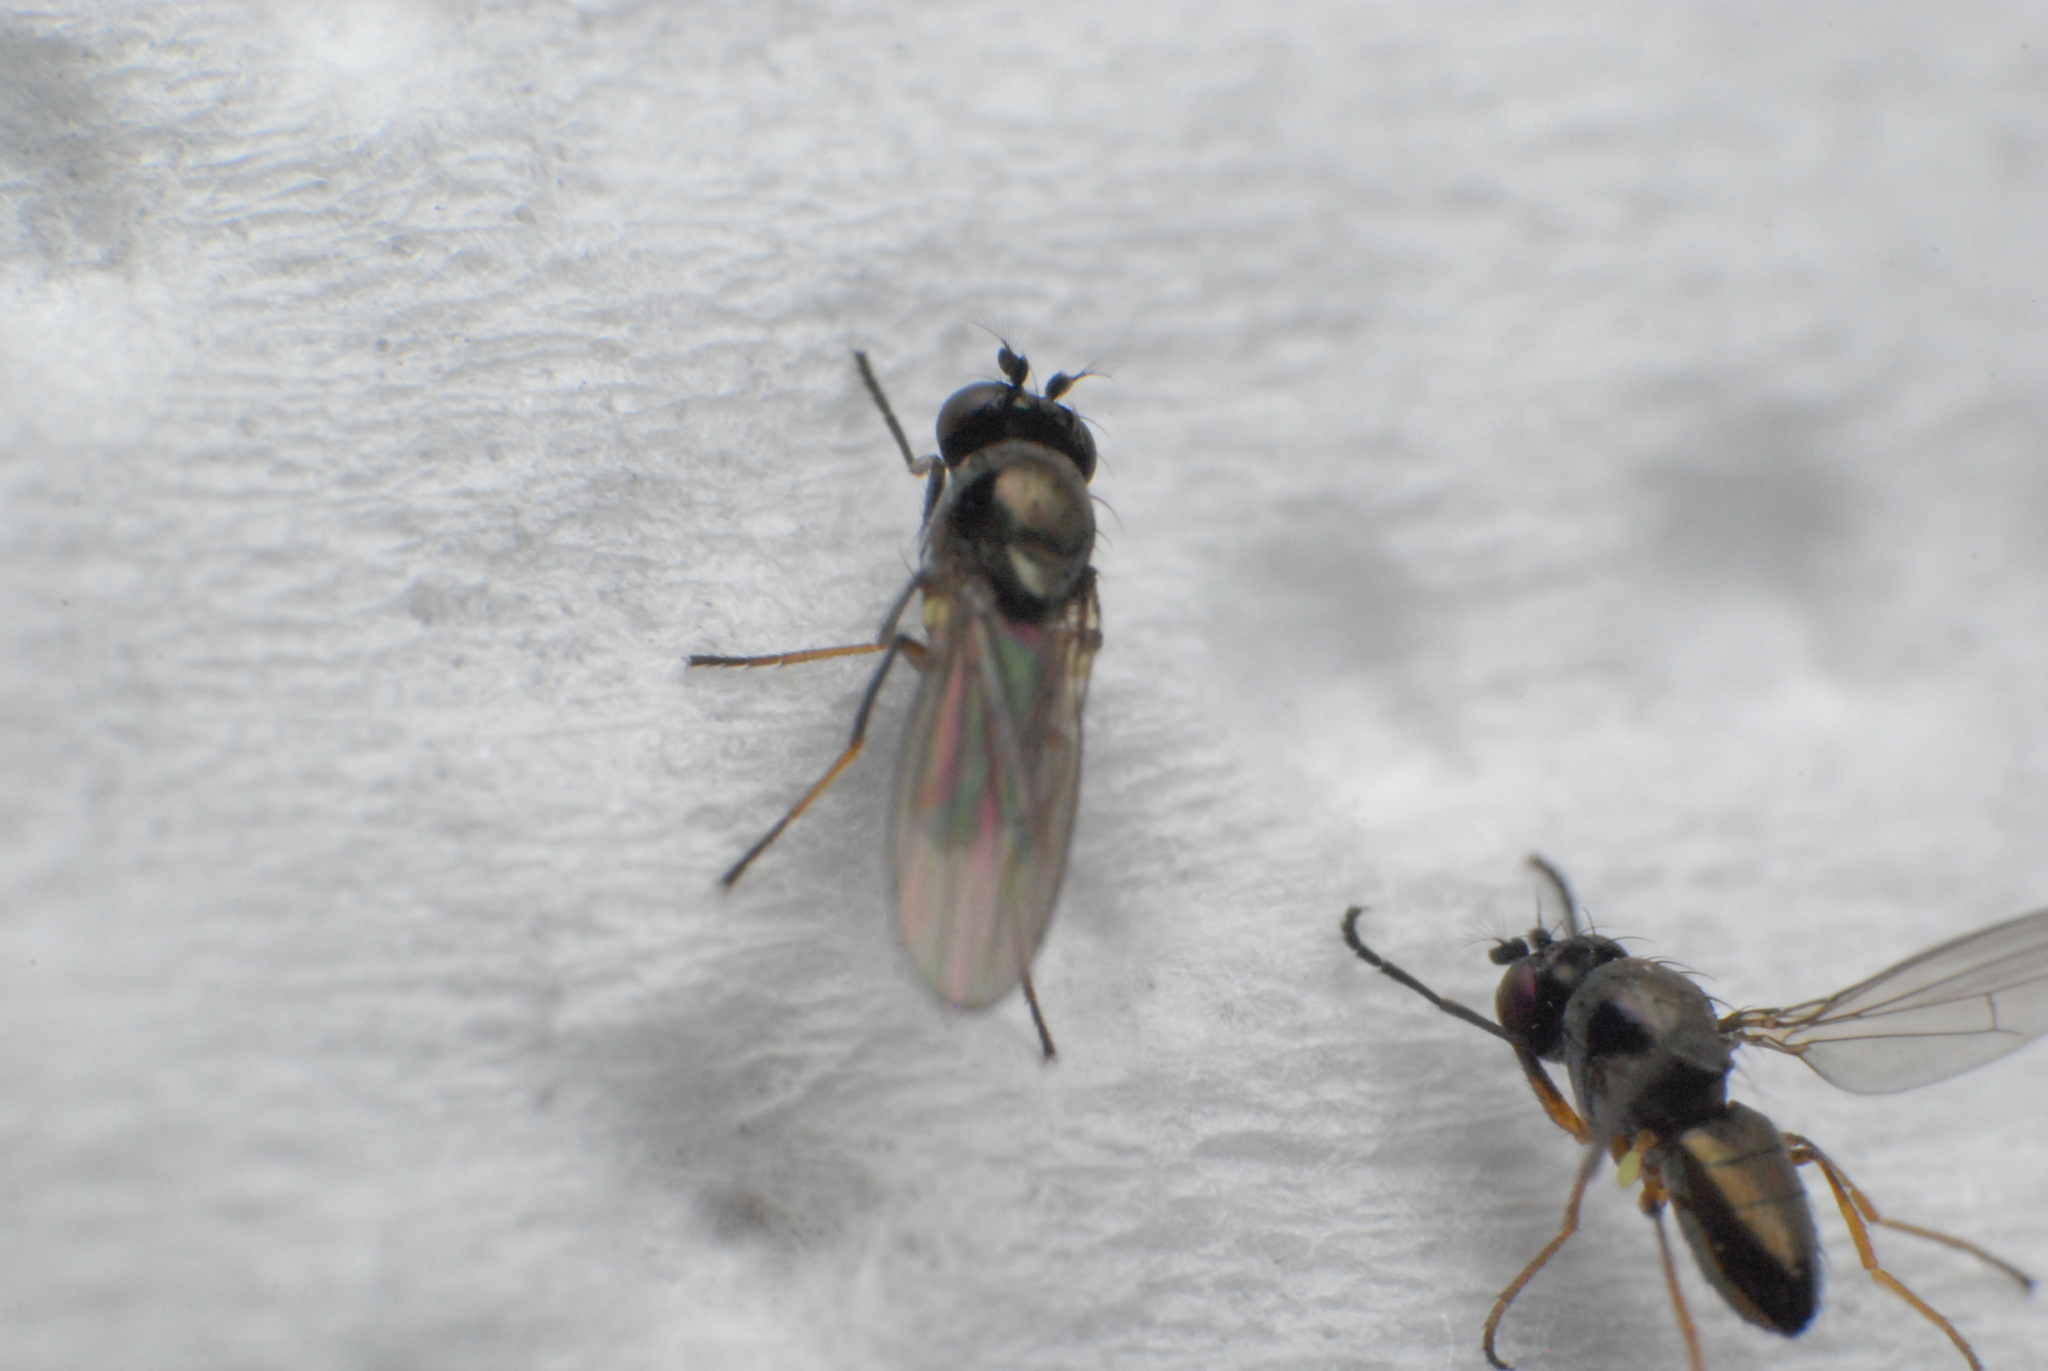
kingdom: Animalia
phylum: Arthropoda
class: Insecta
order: Diptera
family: Ephydridae
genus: Hydrellia
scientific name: Hydrellia tritici
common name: Shore fly
